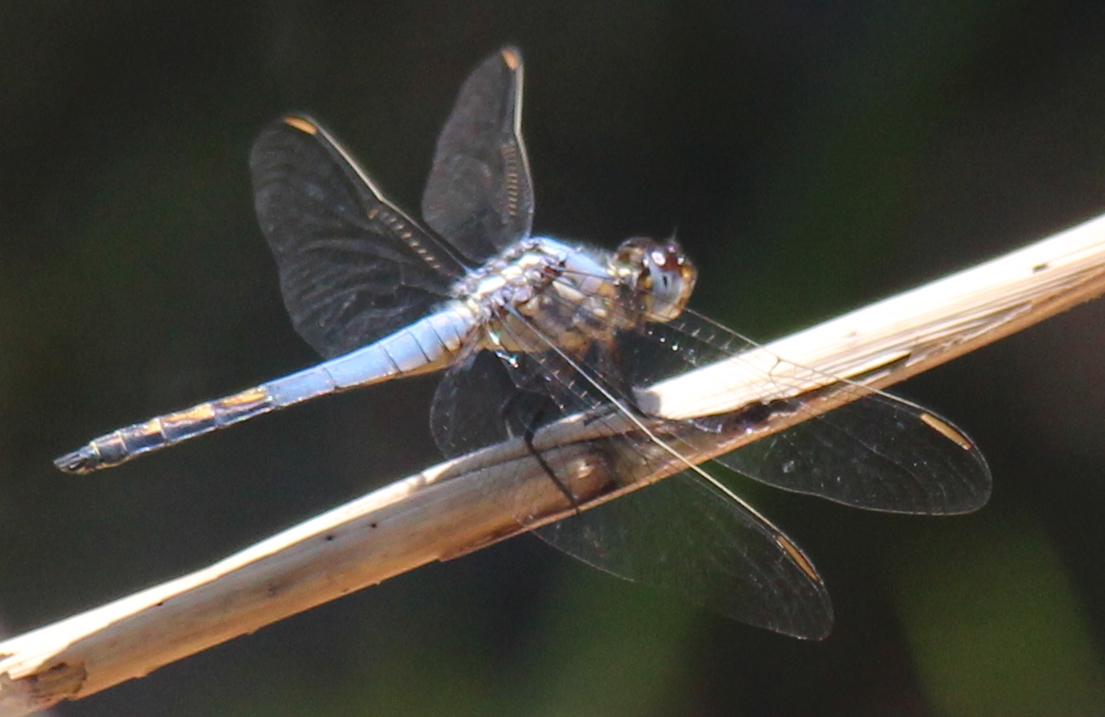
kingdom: Animalia
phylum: Arthropoda
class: Insecta
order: Odonata
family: Libellulidae
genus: Nesciothemis
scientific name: Nesciothemis farinosa
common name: Eastern blacktail
